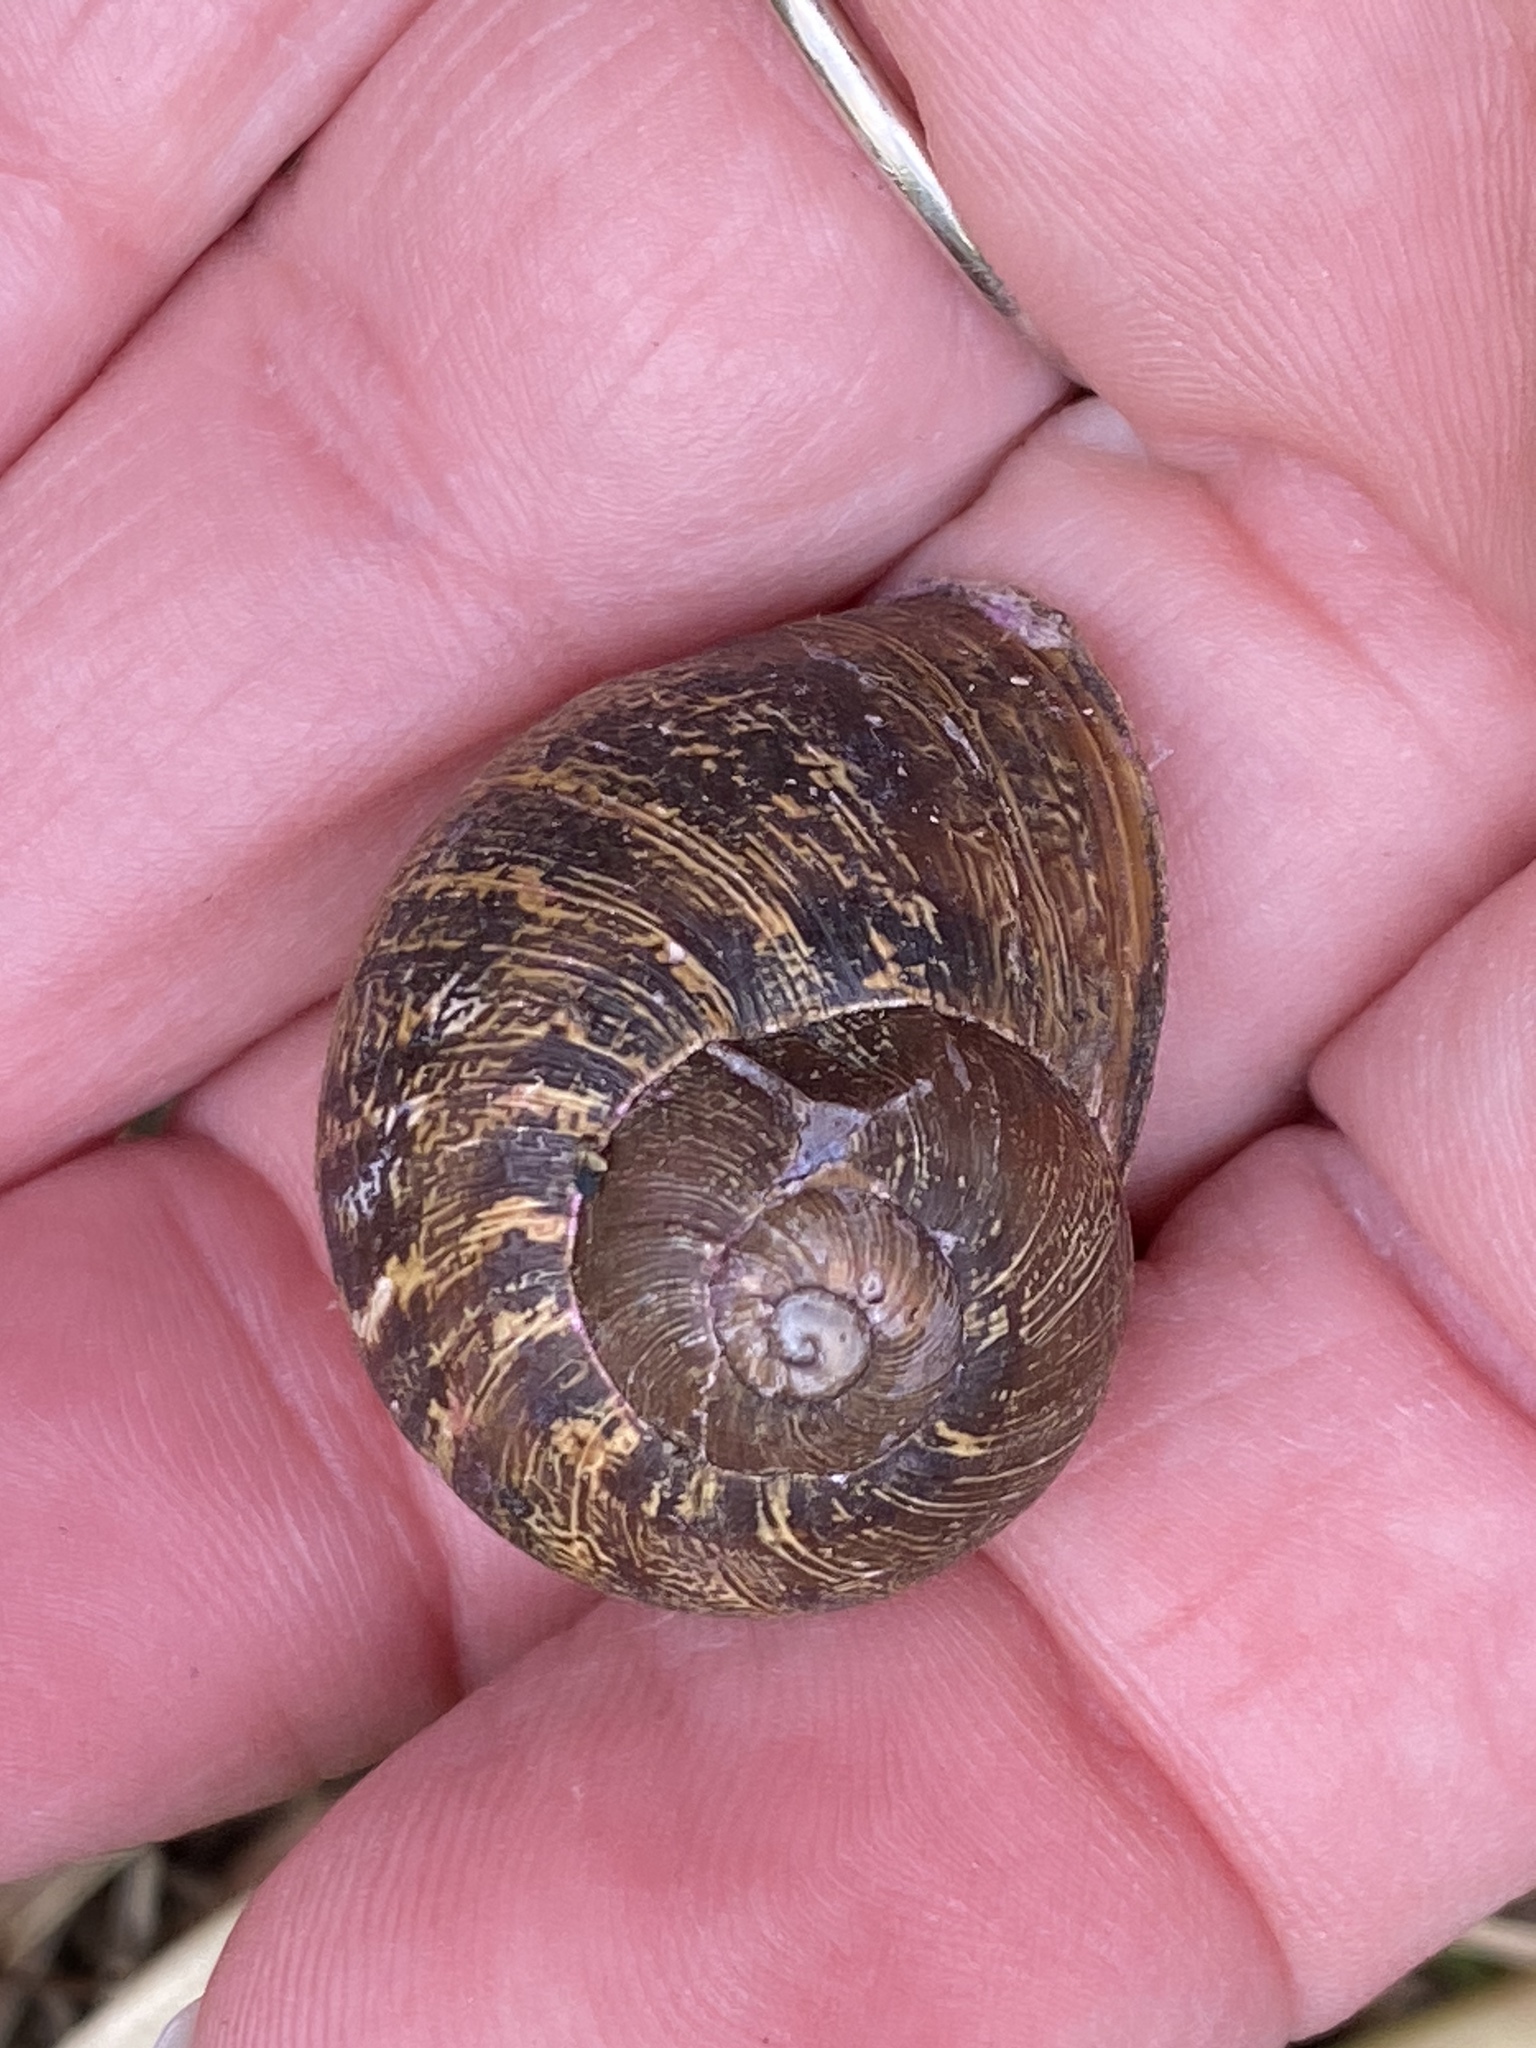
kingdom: Animalia
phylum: Mollusca
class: Gastropoda
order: Stylommatophora
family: Helicidae
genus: Cornu
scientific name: Cornu aspersum
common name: Brown garden snail
